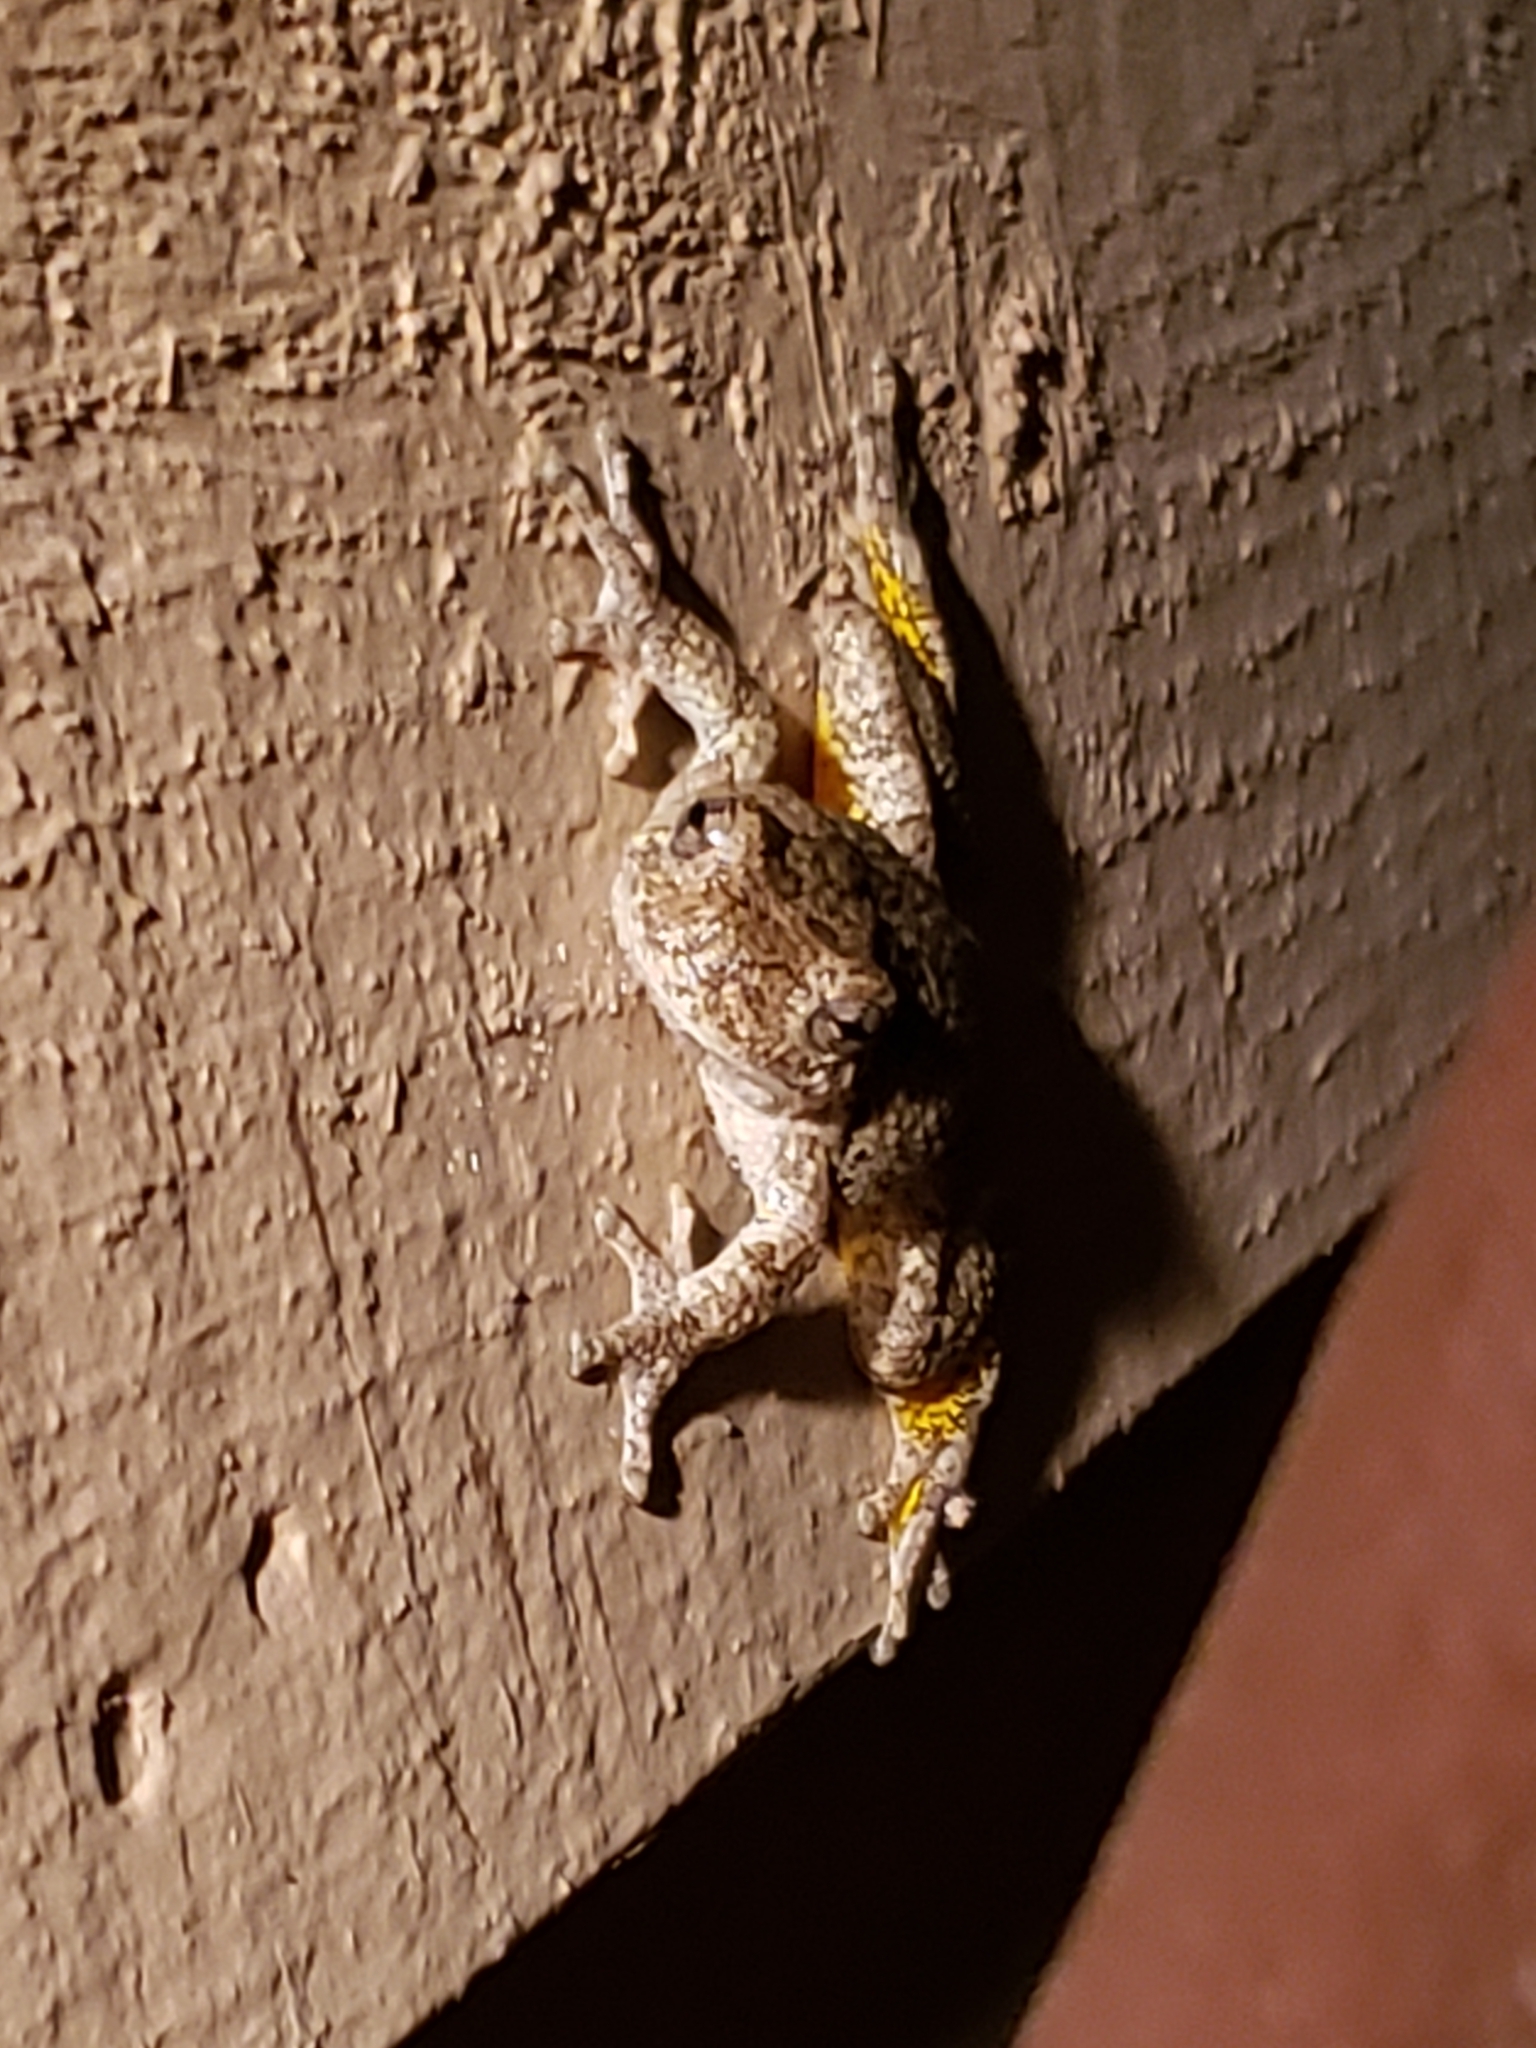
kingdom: Animalia
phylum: Chordata
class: Amphibia
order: Anura
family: Hylidae
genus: Hyla
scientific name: Hyla
